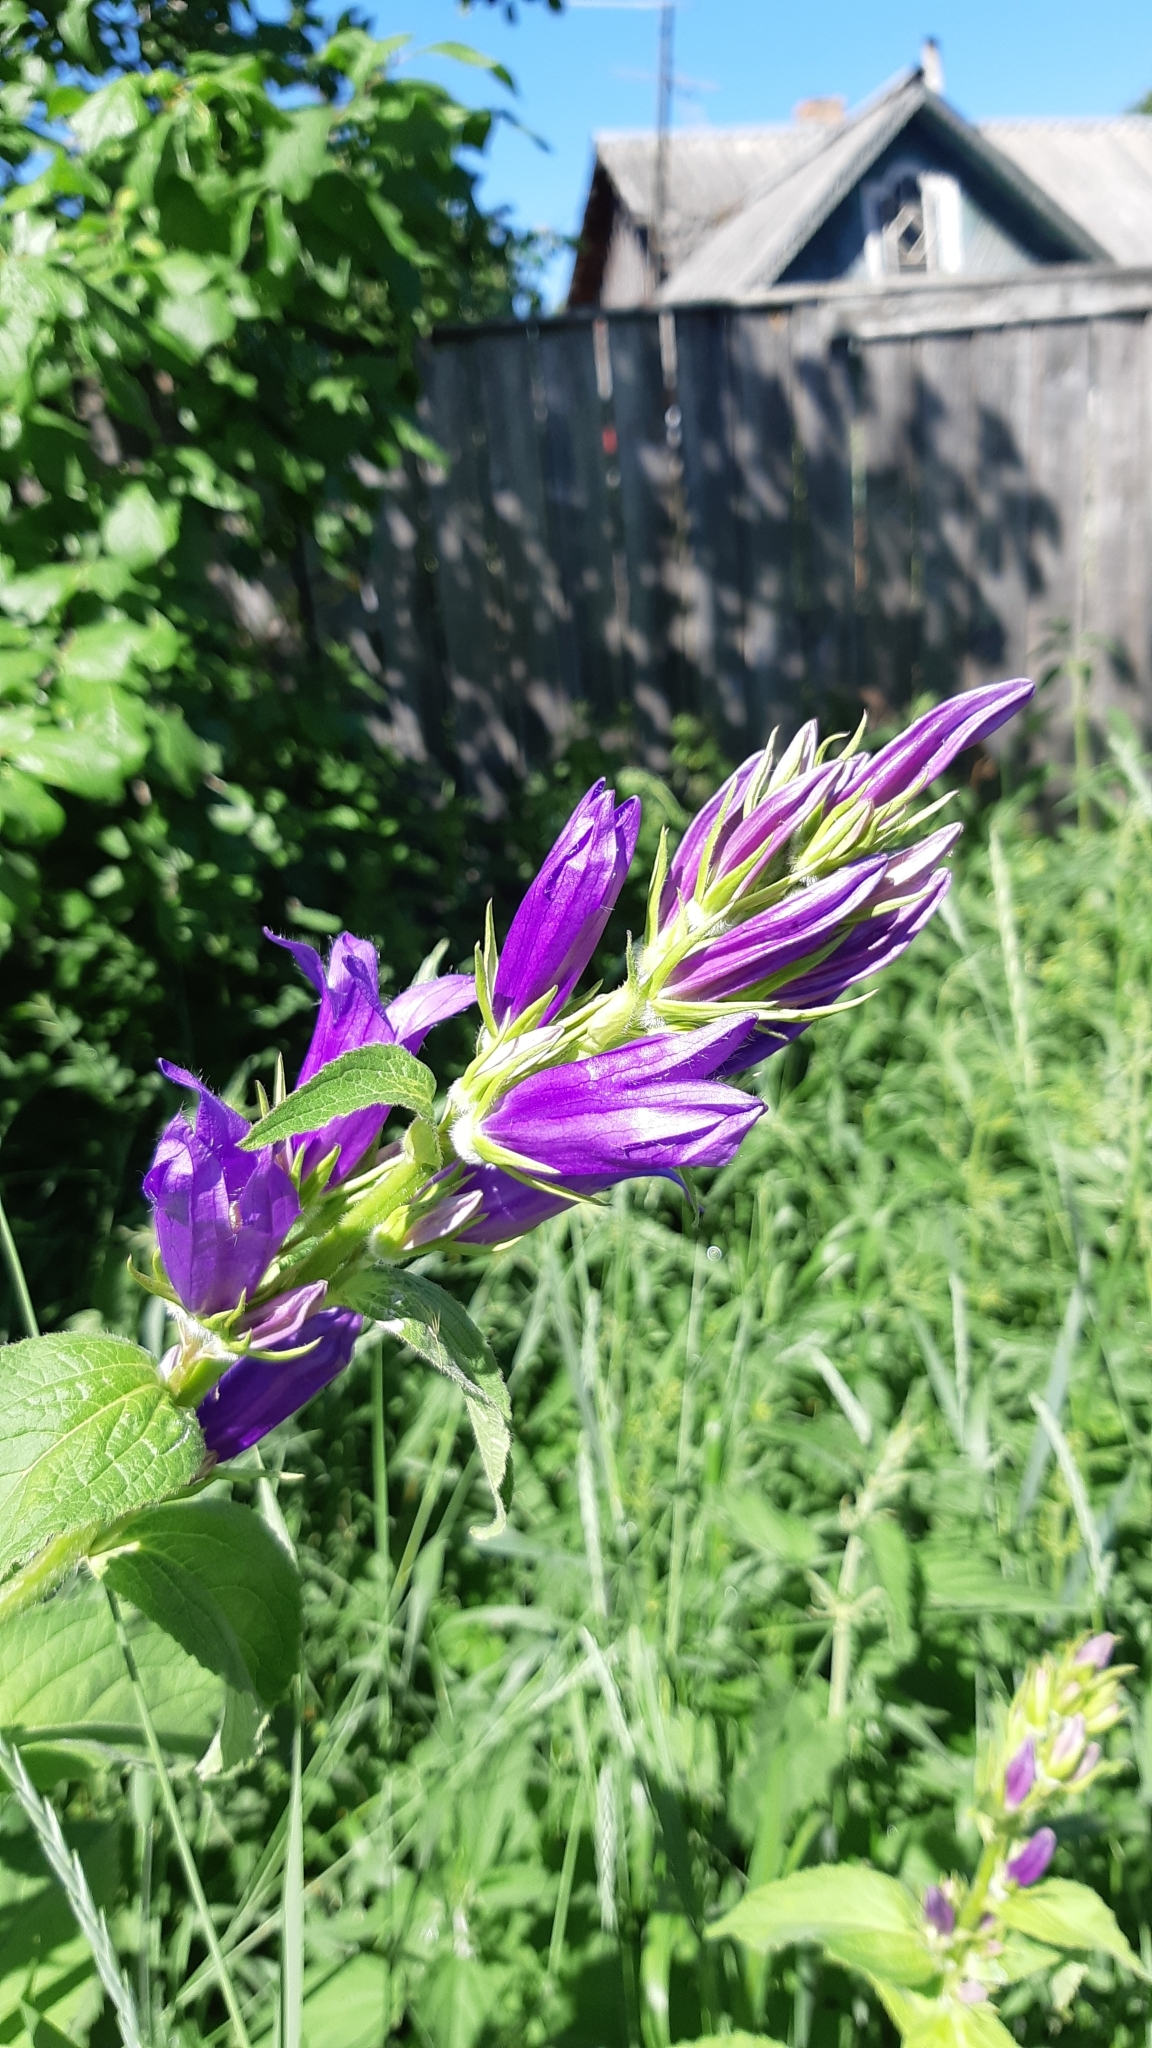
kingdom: Plantae
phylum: Tracheophyta
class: Magnoliopsida
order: Asterales
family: Campanulaceae
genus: Campanula
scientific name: Campanula latifolia
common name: Giant bellflower
